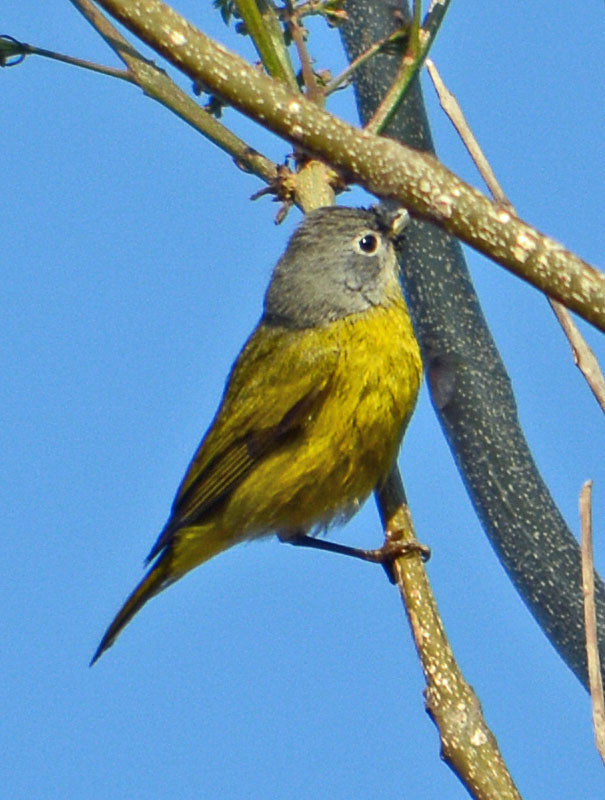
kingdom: Animalia
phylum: Chordata
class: Aves
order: Passeriformes
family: Parulidae
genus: Leiothlypis
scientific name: Leiothlypis ruficapilla
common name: Nashville warbler
